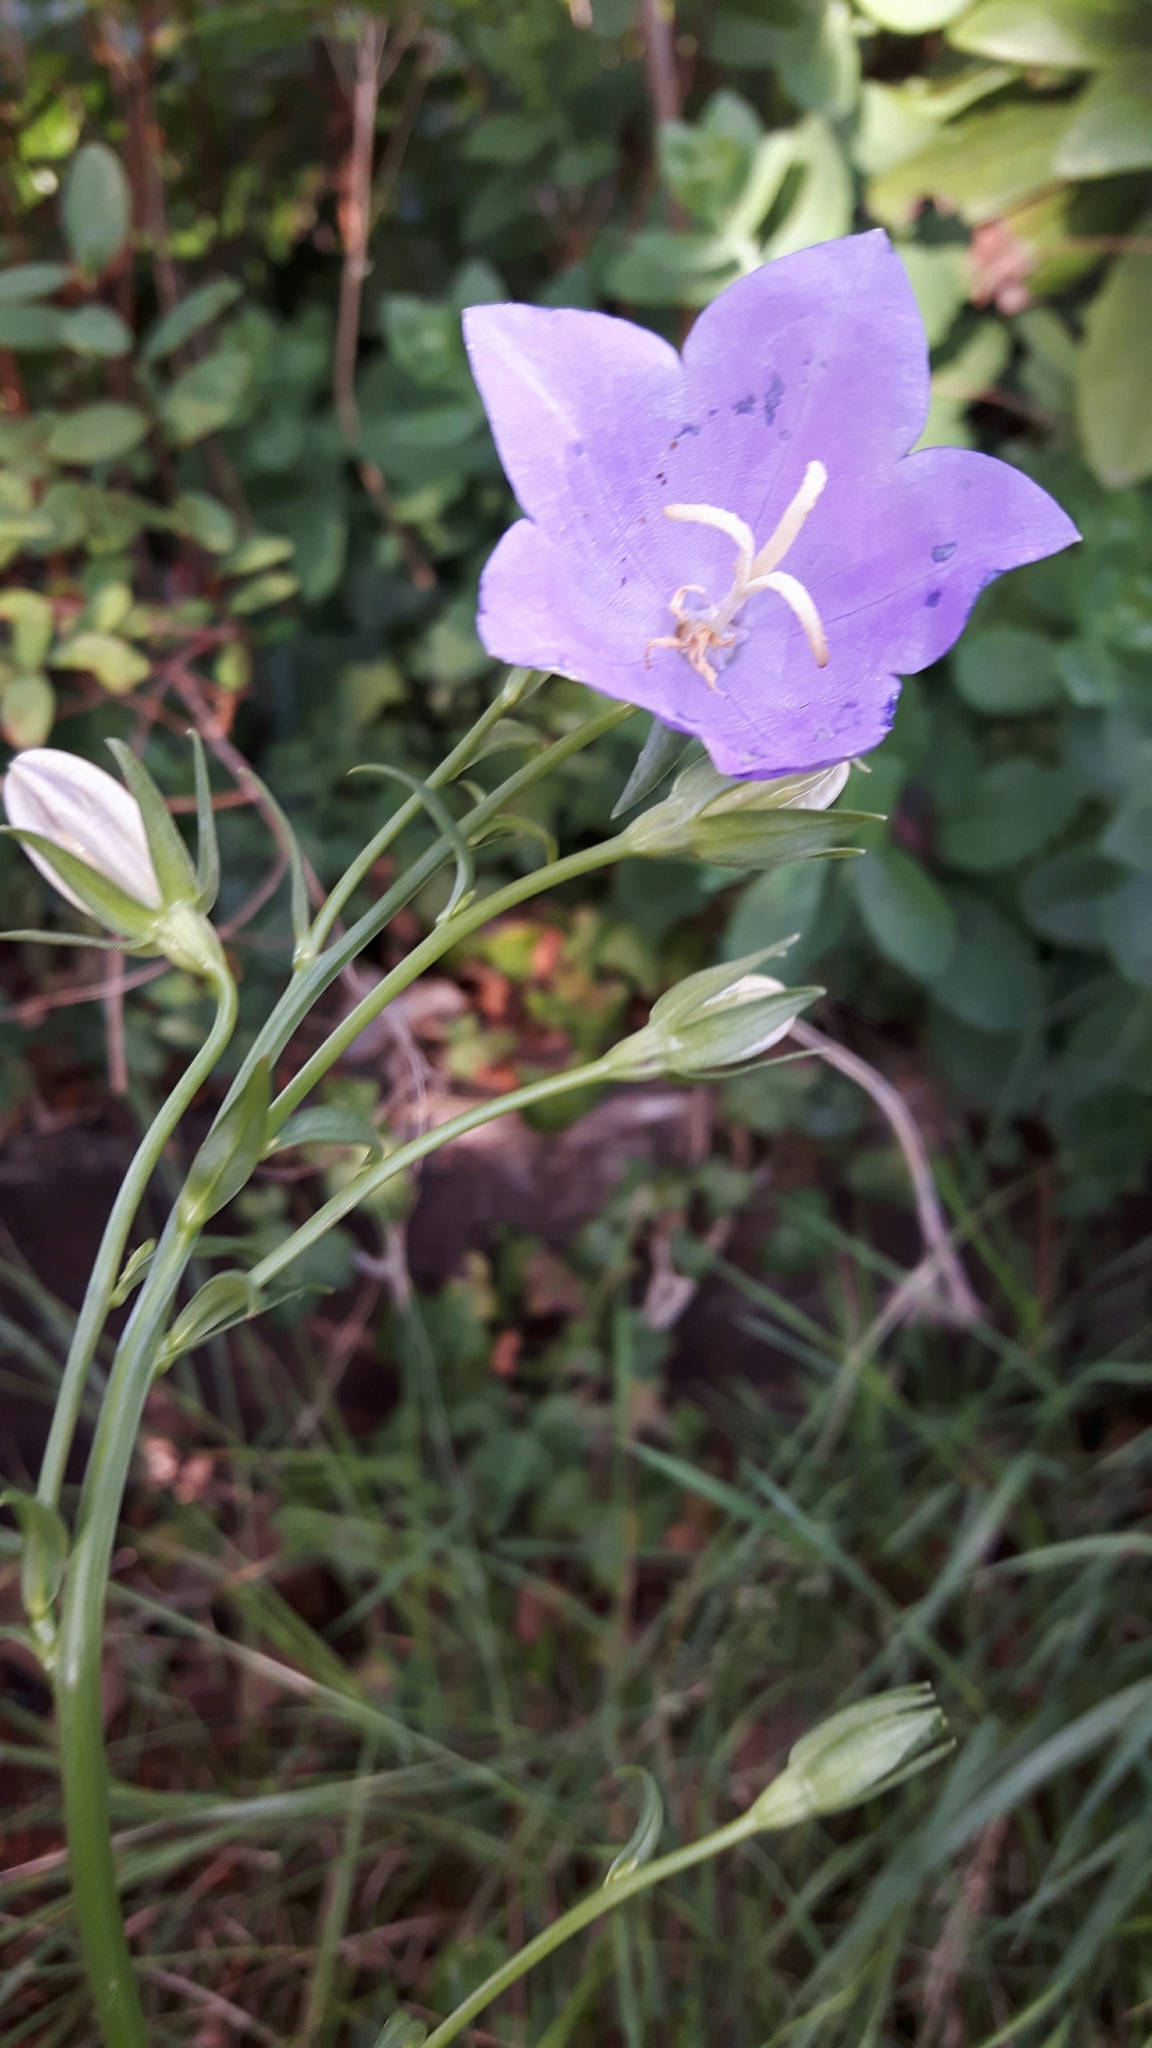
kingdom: Plantae
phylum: Tracheophyta
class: Magnoliopsida
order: Asterales
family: Campanulaceae
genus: Campanula
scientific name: Campanula persicifolia
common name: Peach-leaved bellflower
